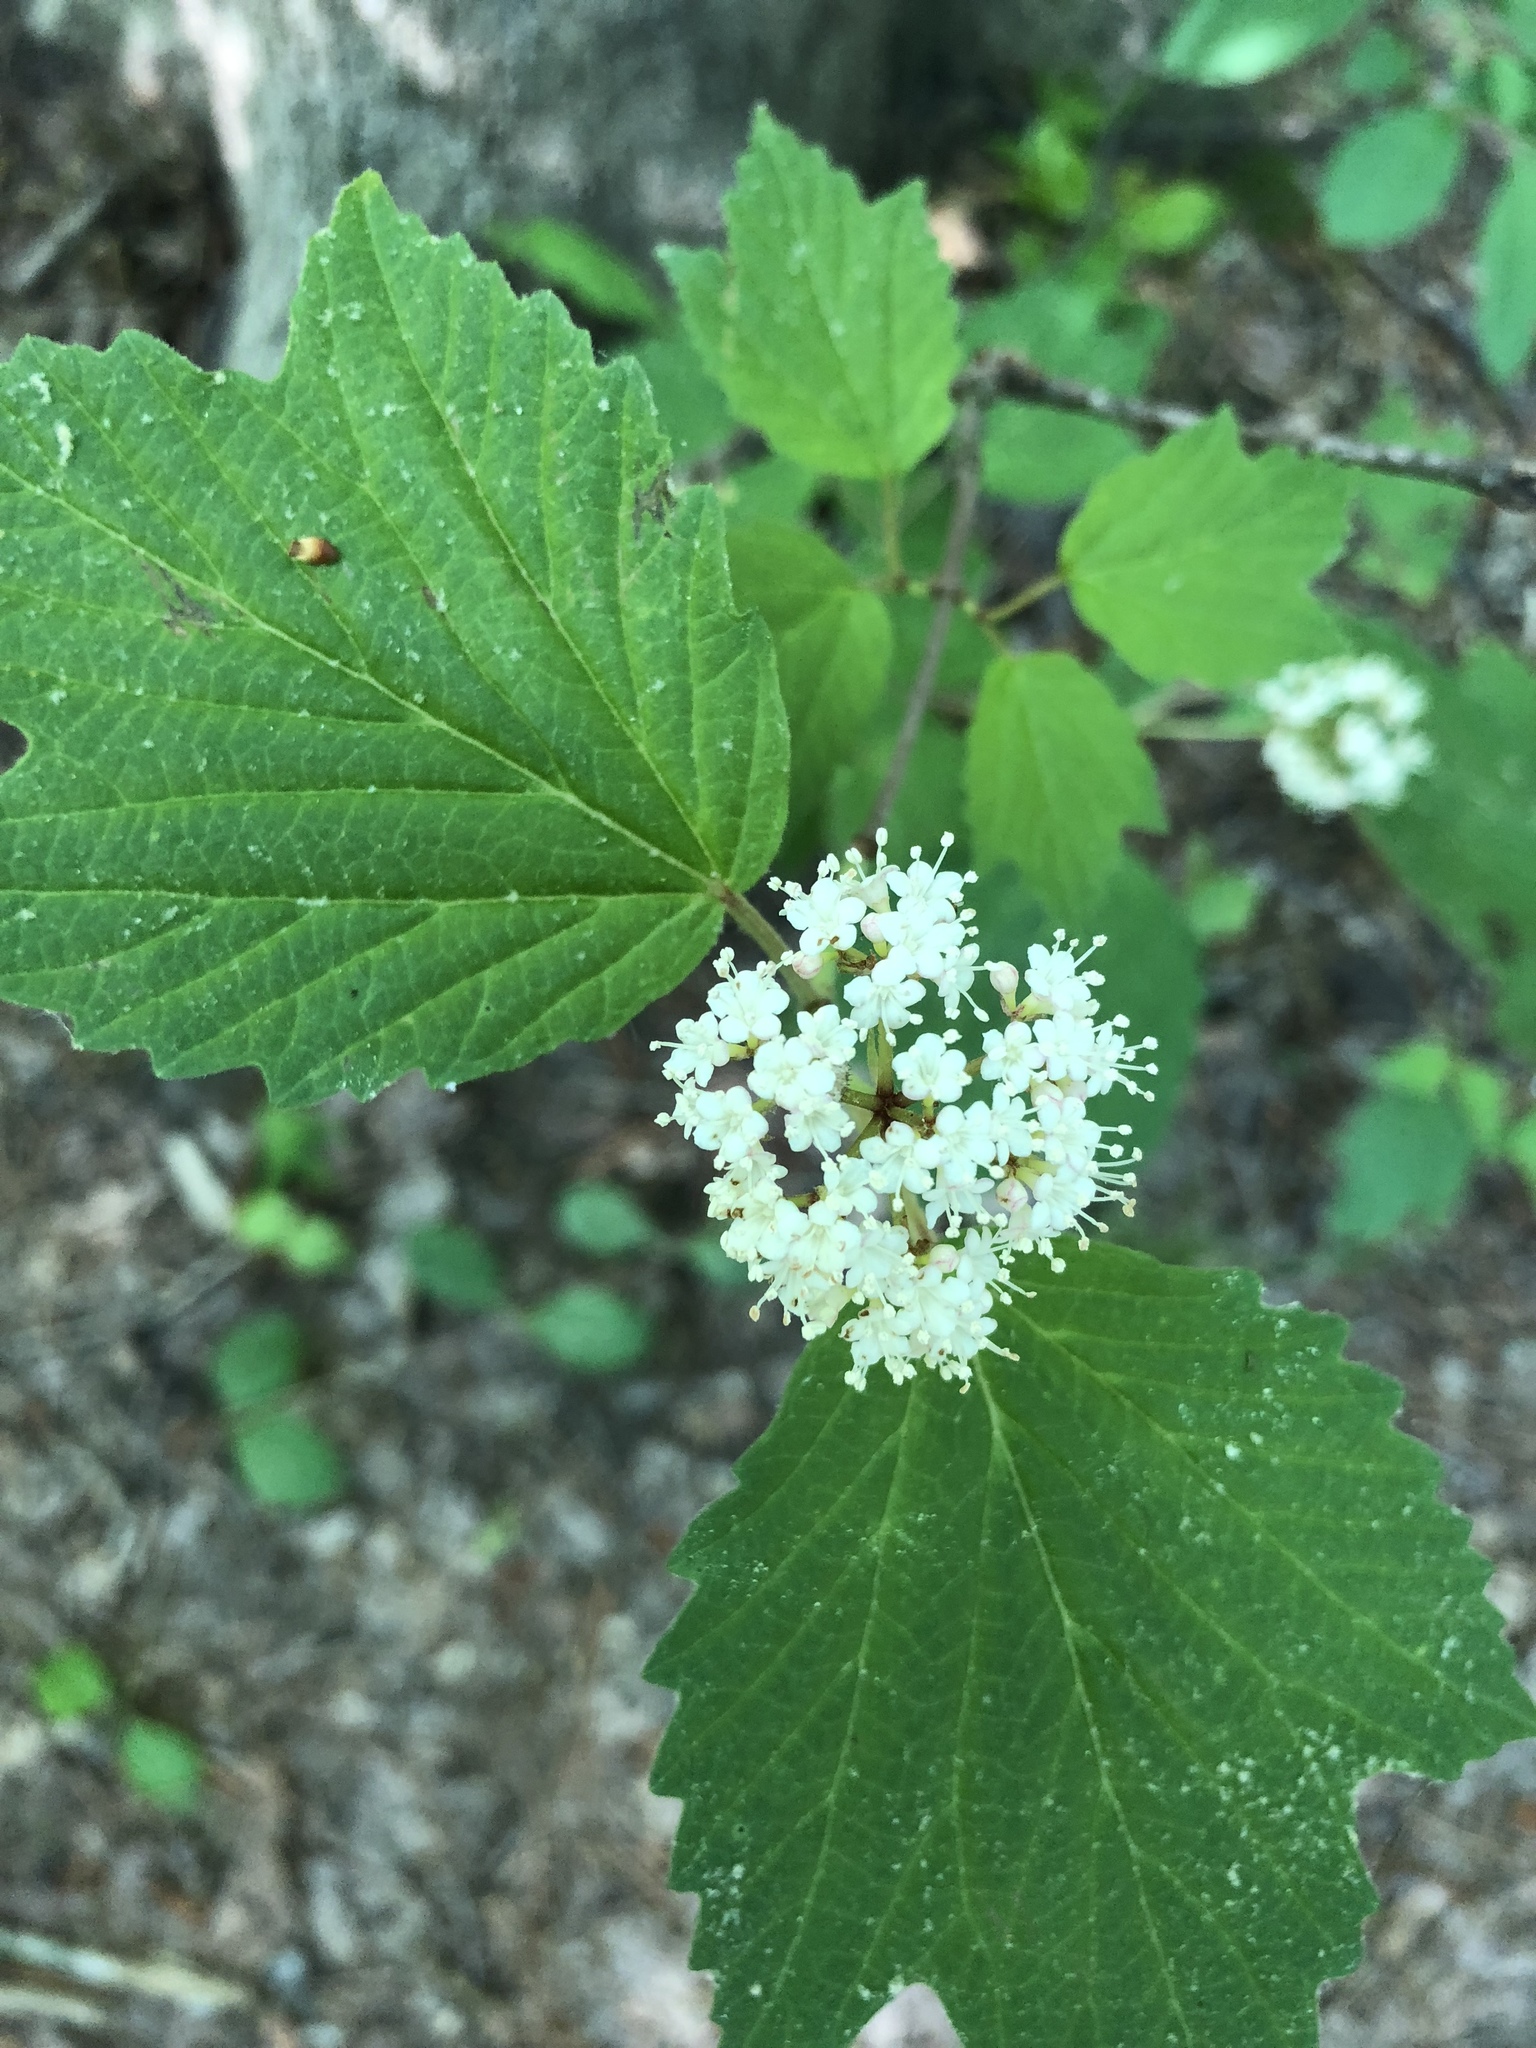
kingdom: Plantae
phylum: Tracheophyta
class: Magnoliopsida
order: Dipsacales
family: Viburnaceae
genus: Viburnum
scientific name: Viburnum acerifolium
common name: Dockmackie
